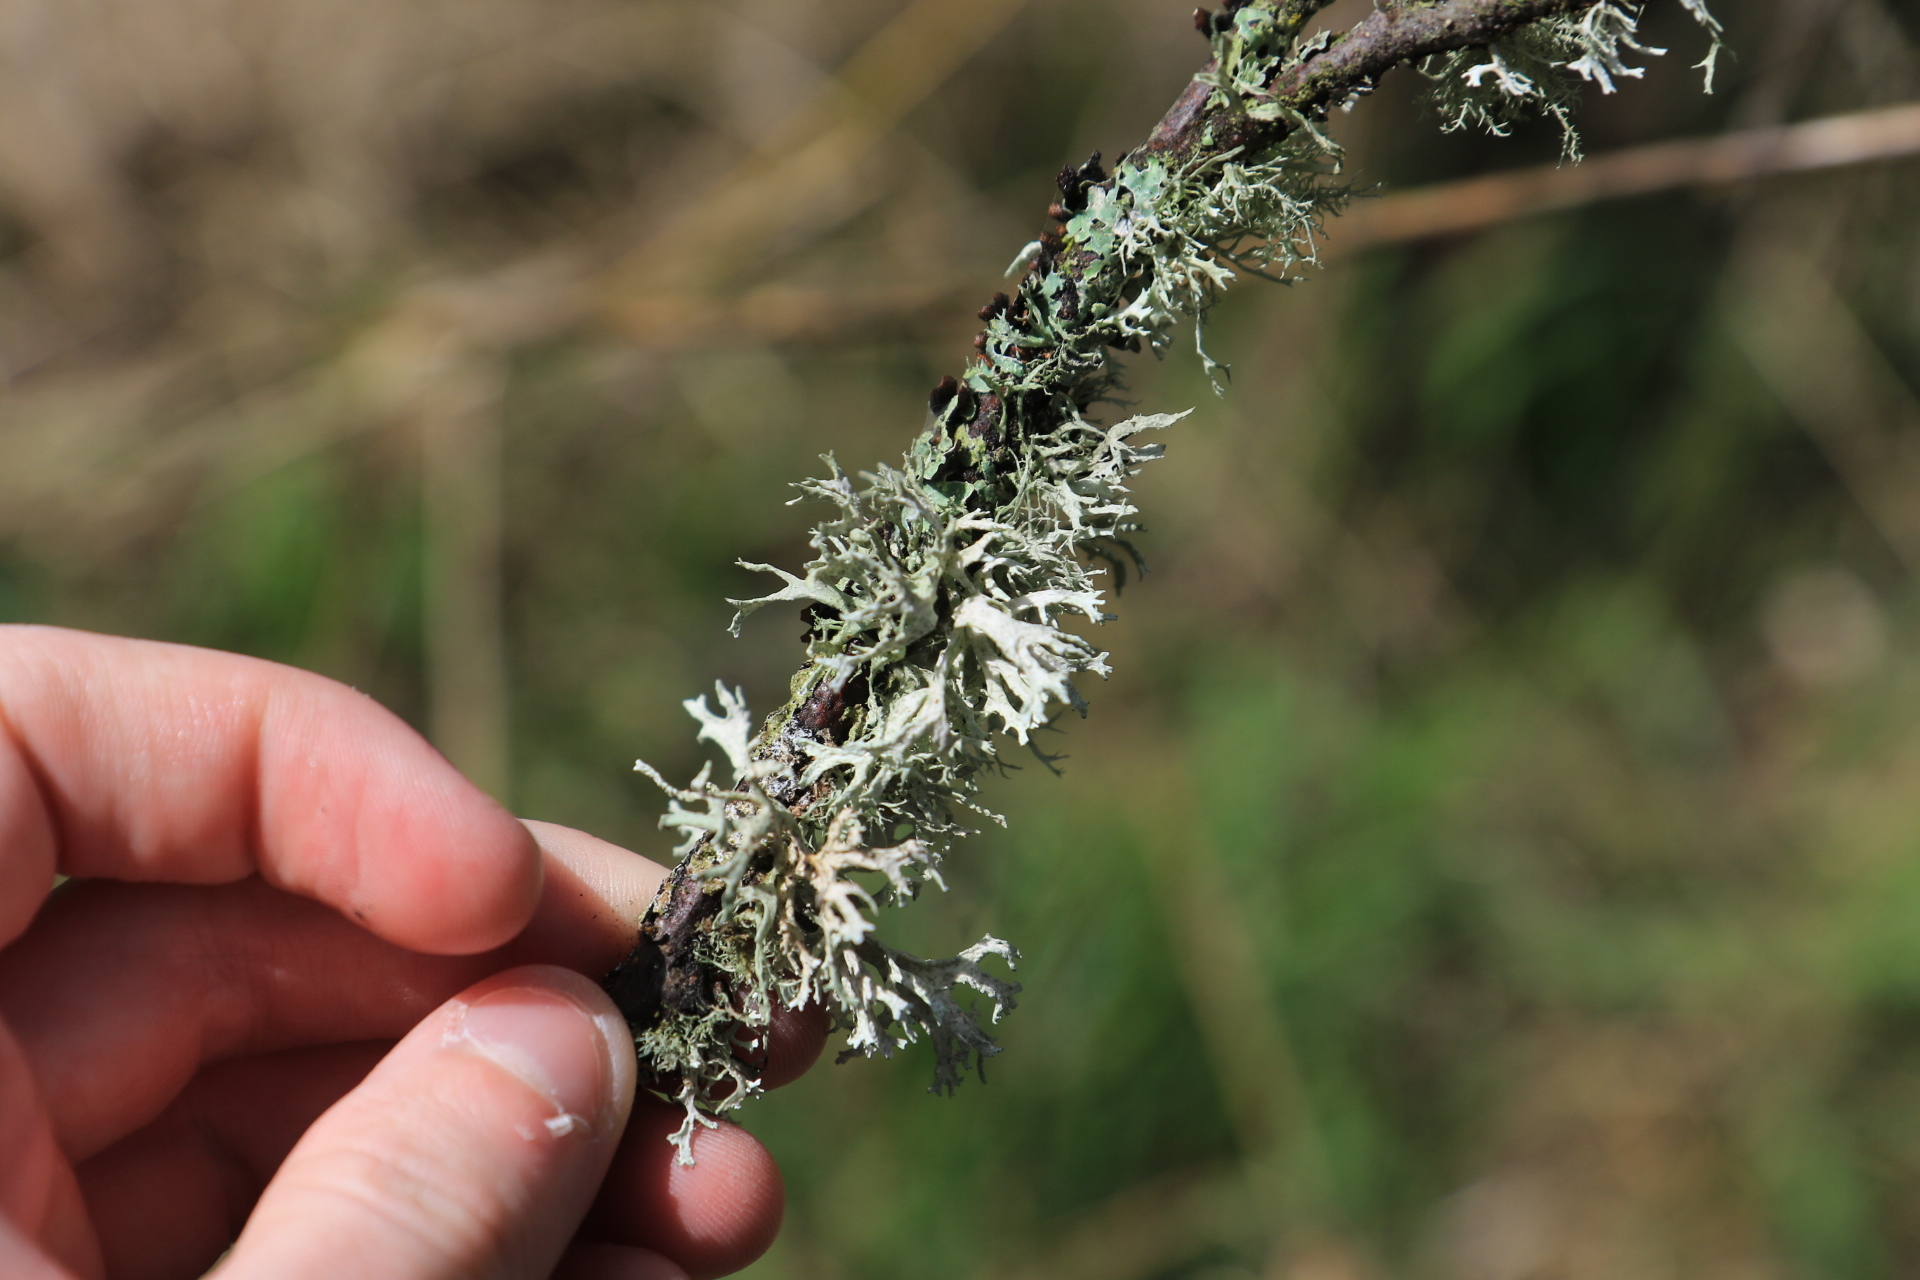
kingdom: Fungi
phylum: Ascomycota
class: Lecanoromycetes
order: Lecanorales
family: Parmeliaceae
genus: Evernia
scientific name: Evernia prunastri
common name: Oak moss
